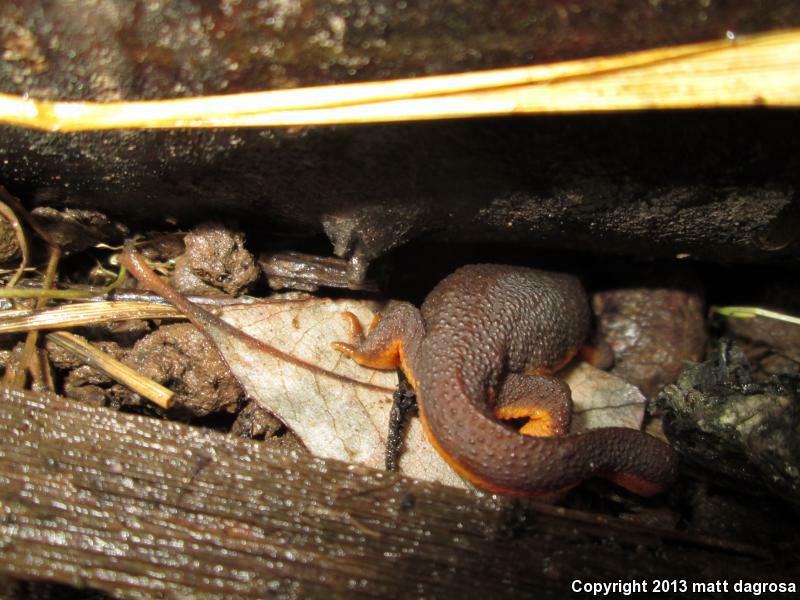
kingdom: Animalia
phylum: Chordata
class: Amphibia
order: Caudata
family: Salamandridae
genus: Taricha
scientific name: Taricha granulosa
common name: Roughskin newt
